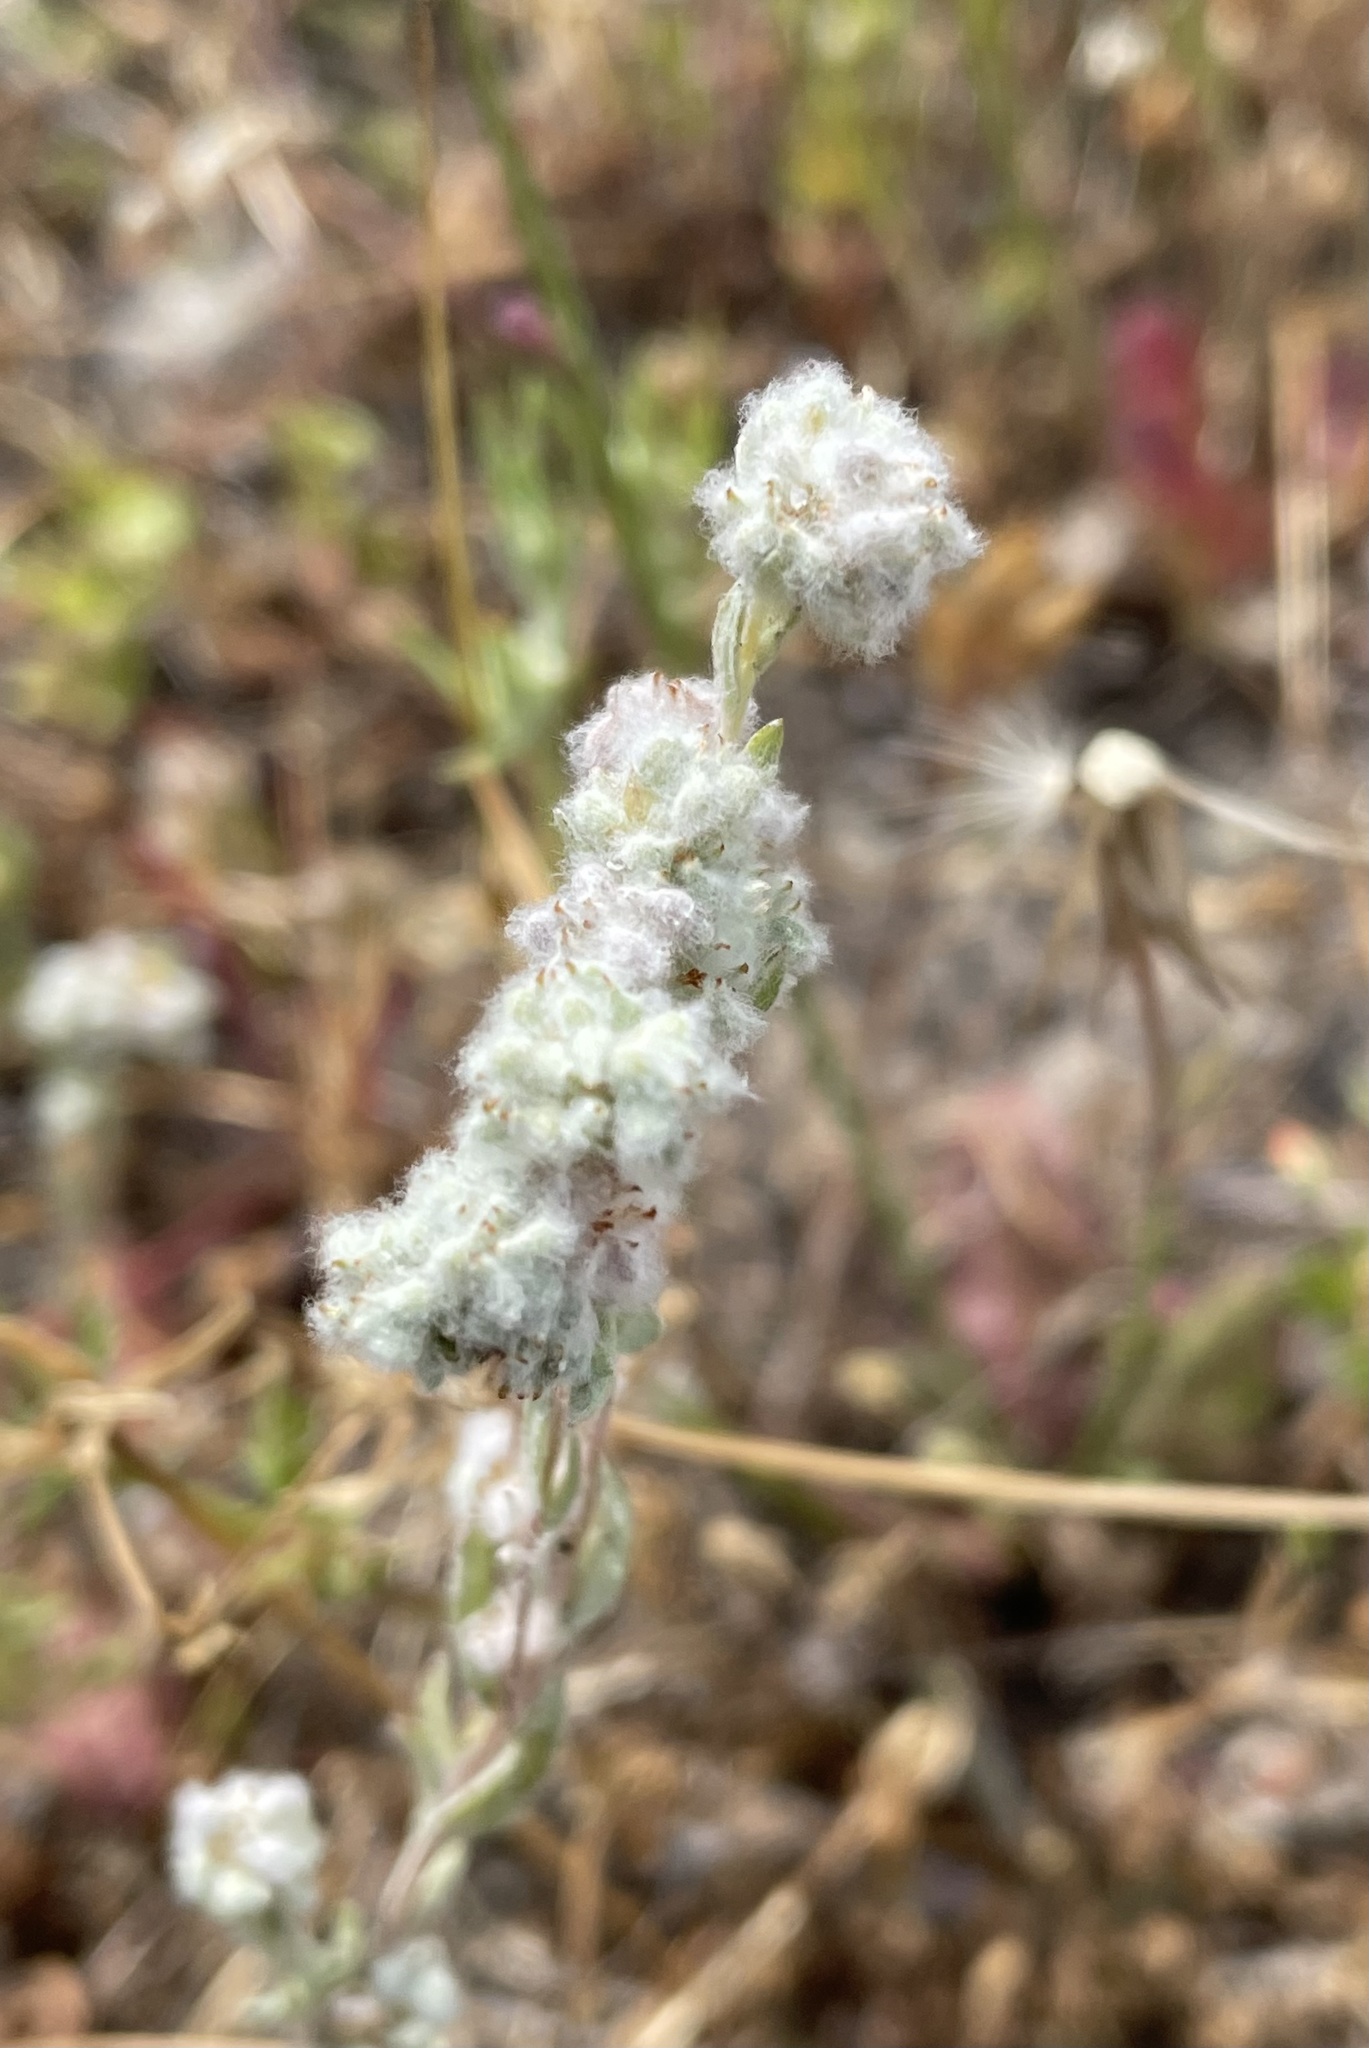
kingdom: Plantae
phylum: Tracheophyta
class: Magnoliopsida
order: Asterales
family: Asteraceae
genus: Bombycilaena
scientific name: Bombycilaena californica
